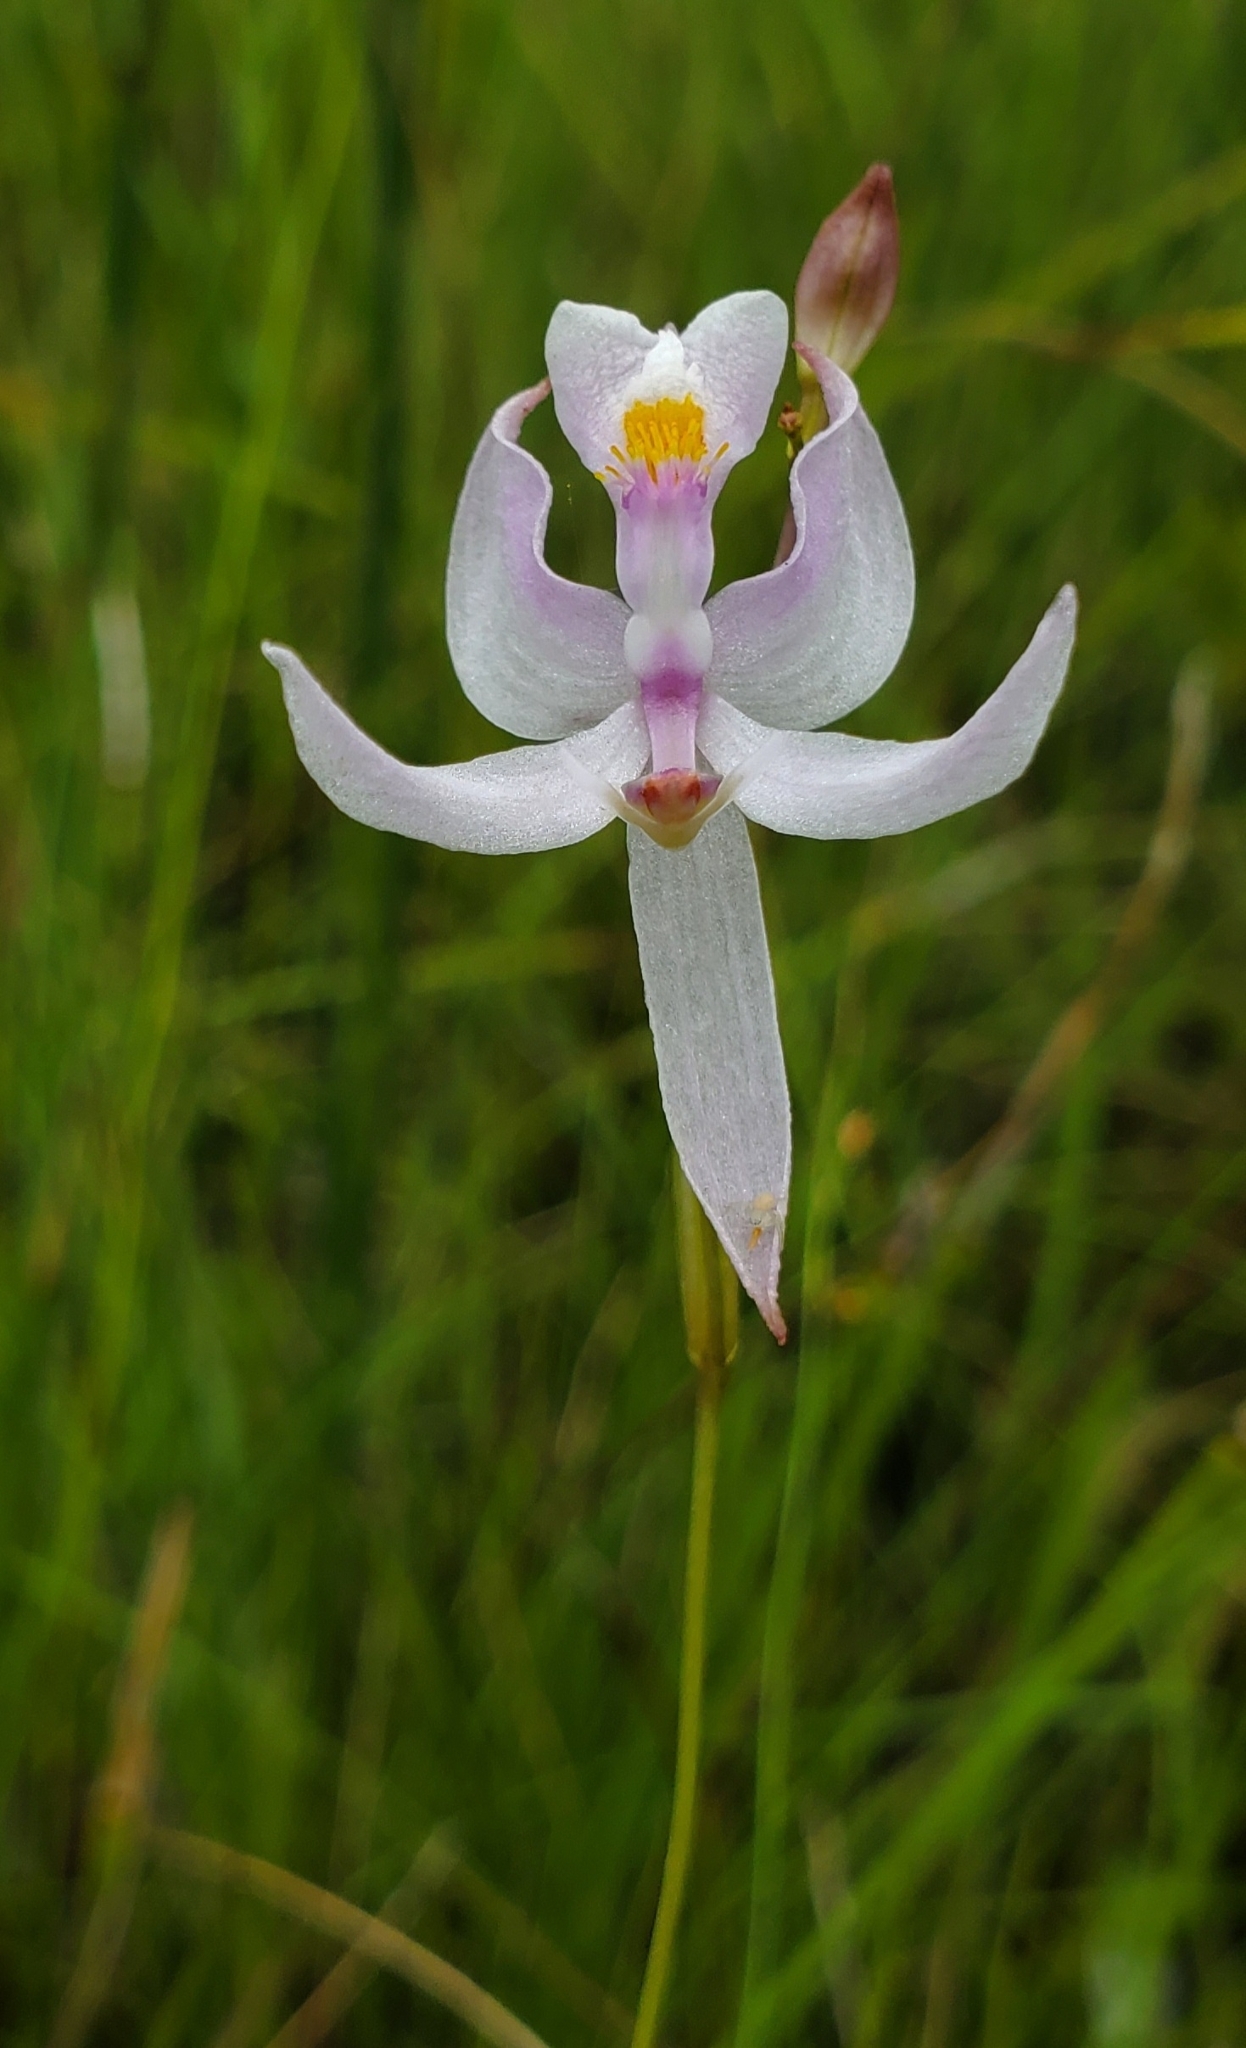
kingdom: Plantae
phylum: Tracheophyta
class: Liliopsida
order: Asparagales
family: Orchidaceae
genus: Calopogon
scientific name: Calopogon pallidus
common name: Pale grasspink
